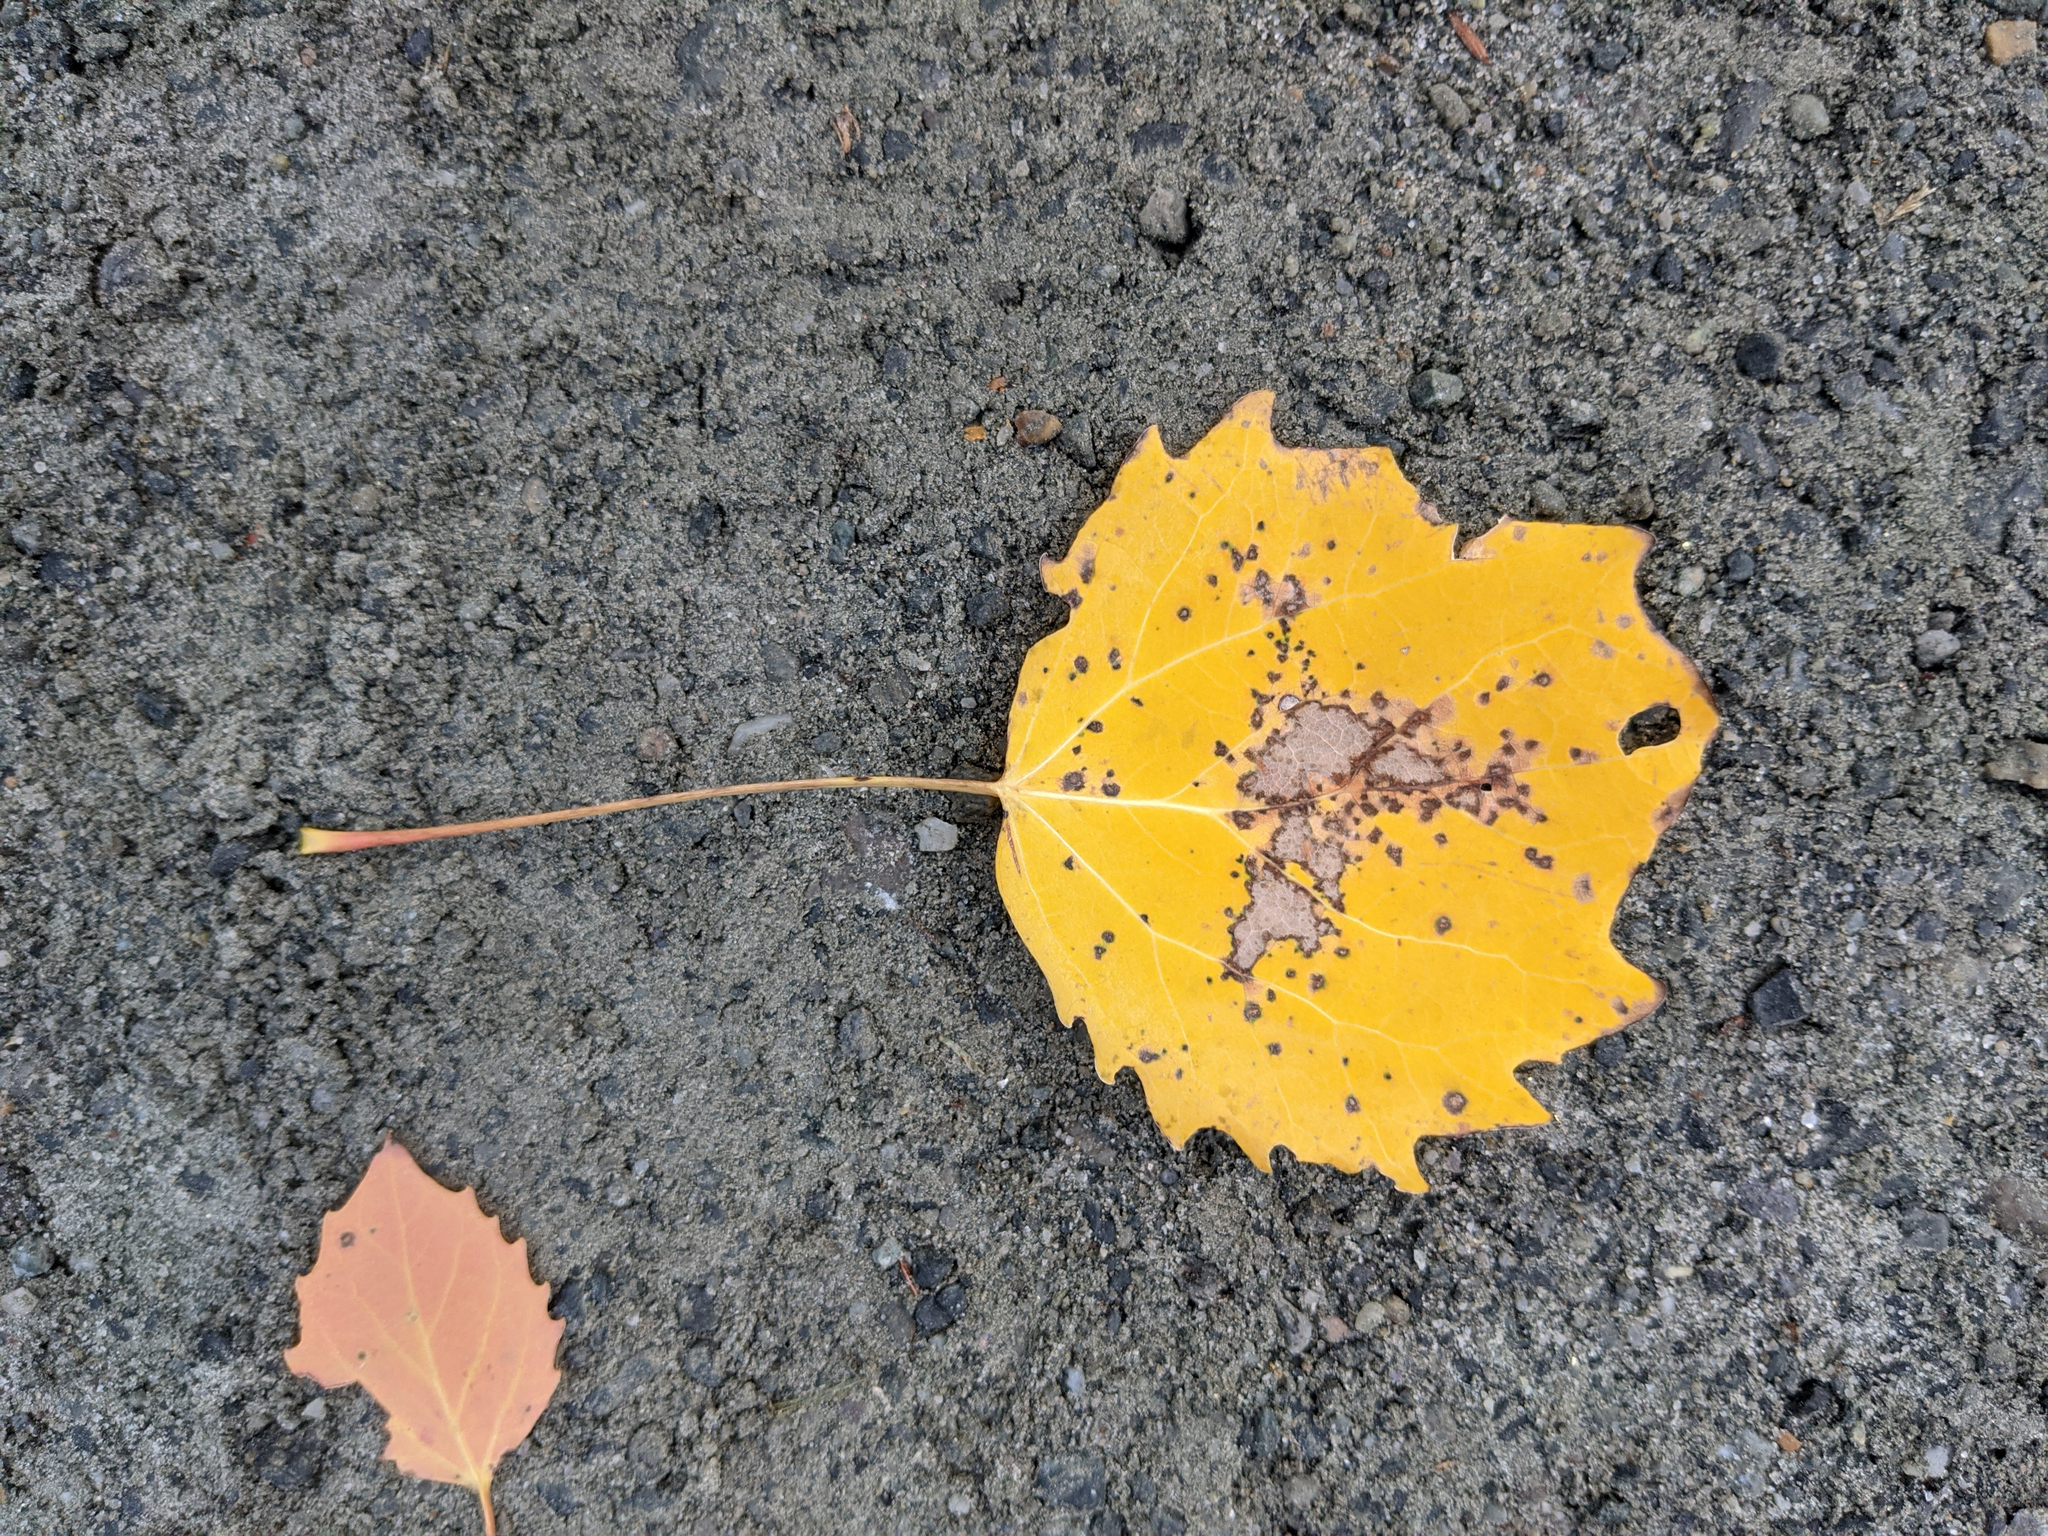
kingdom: Plantae
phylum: Tracheophyta
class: Magnoliopsida
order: Malpighiales
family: Salicaceae
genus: Populus
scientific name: Populus grandidentata
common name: Bigtooth aspen
